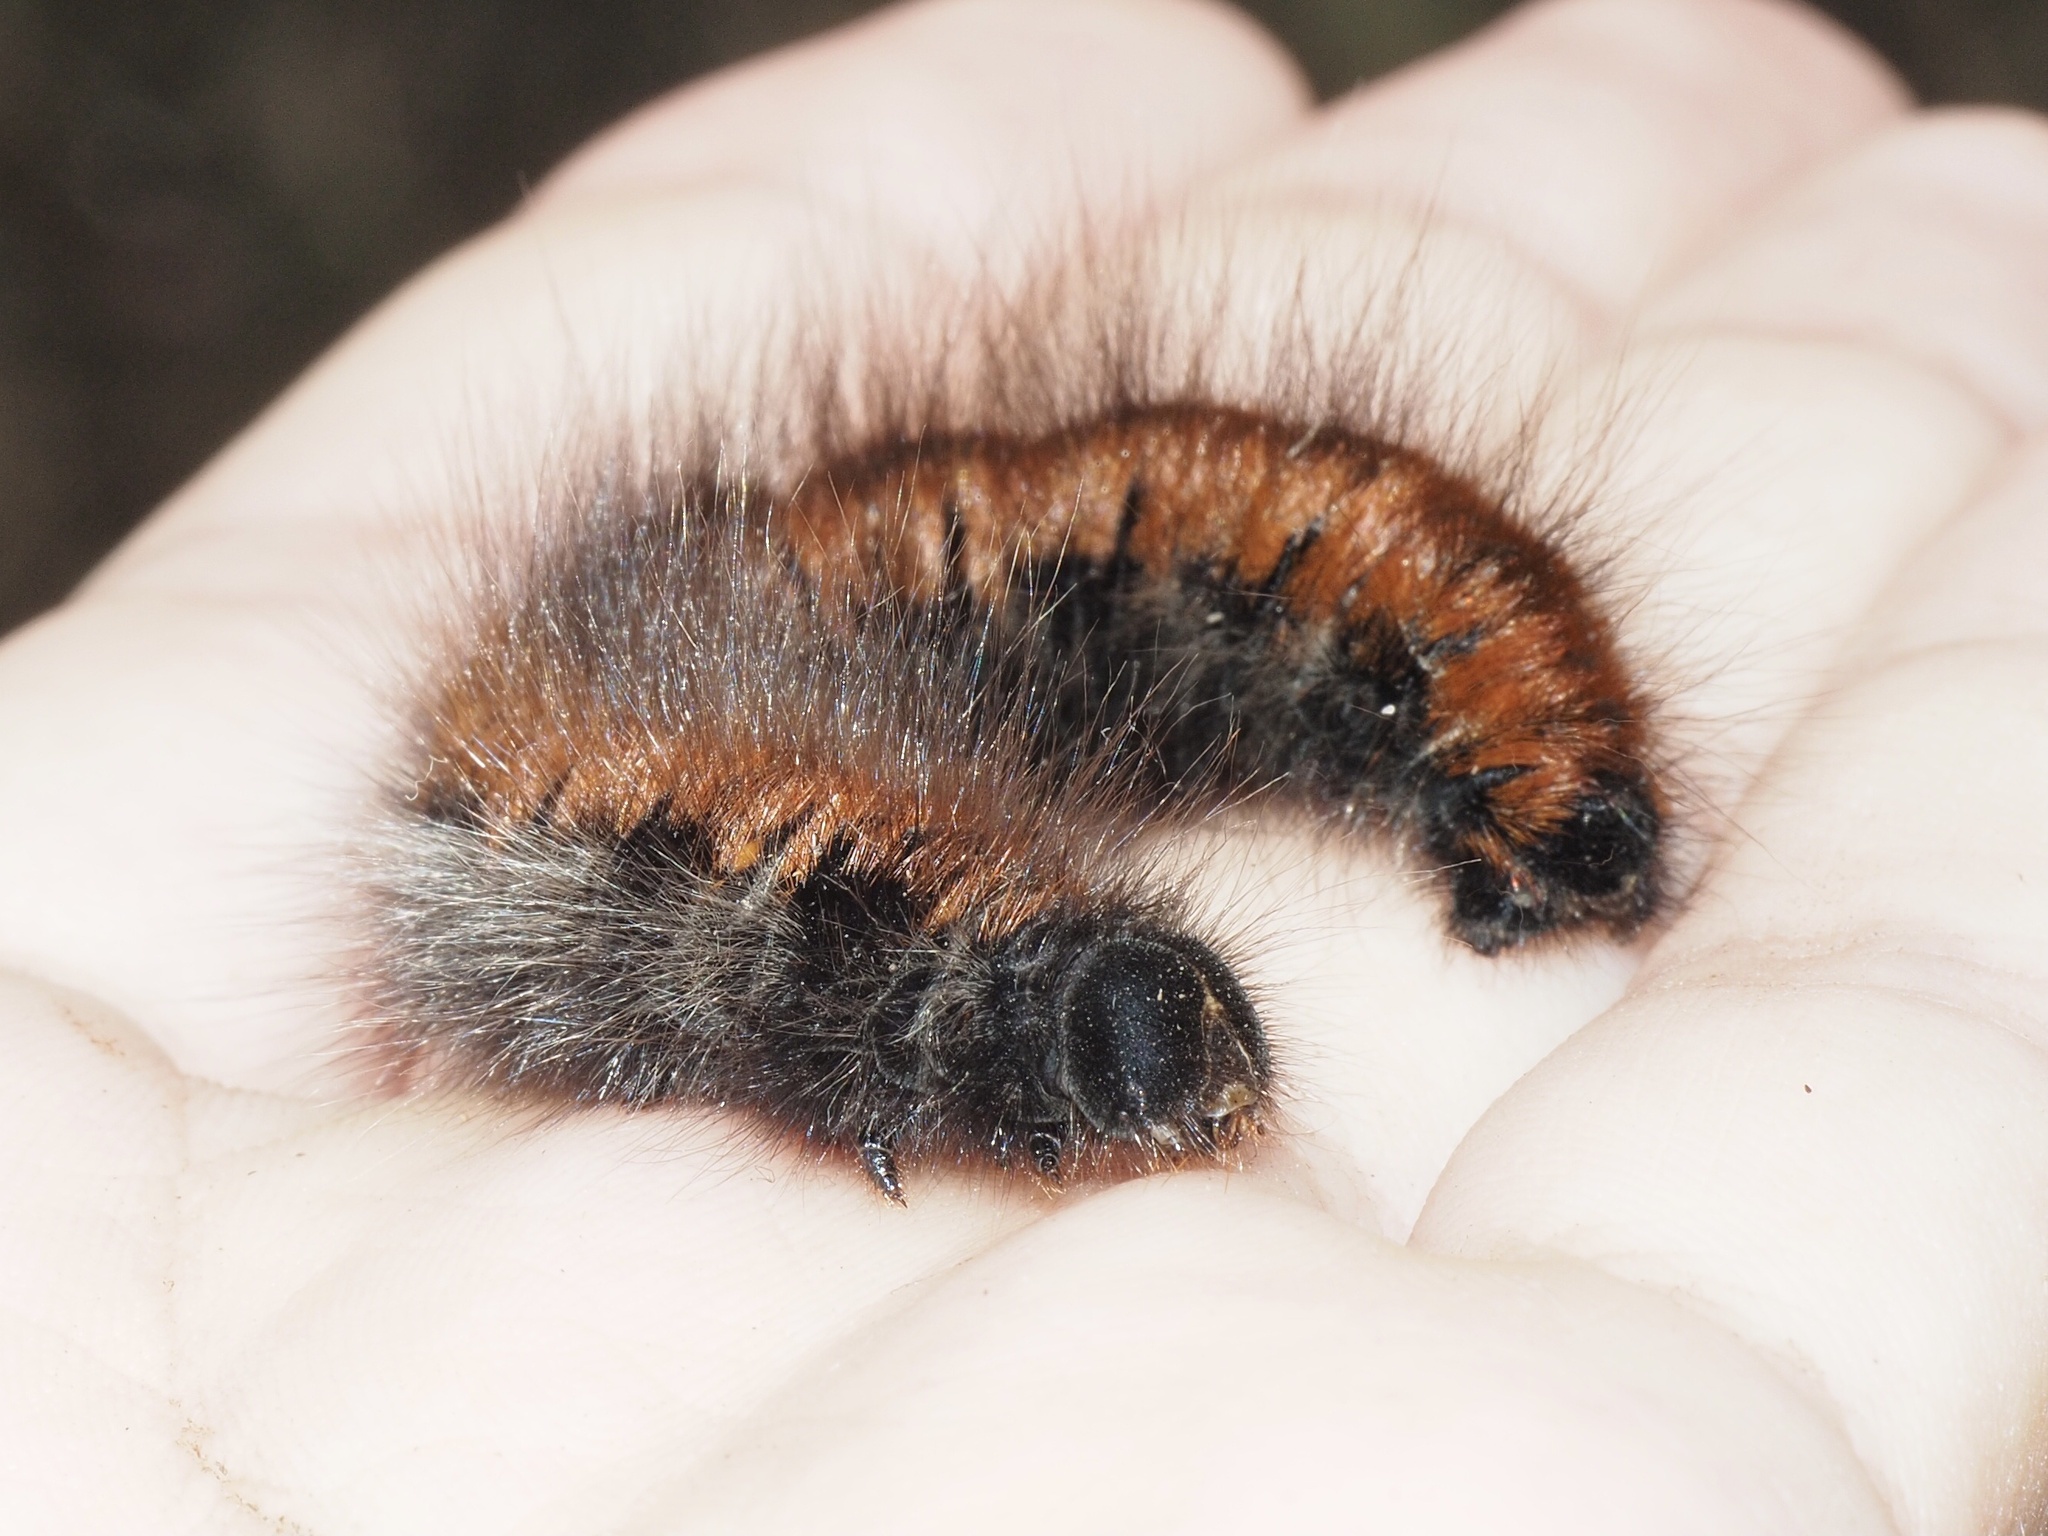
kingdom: Animalia
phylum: Arthropoda
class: Insecta
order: Lepidoptera
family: Lasiocampidae
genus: Macrothylacia
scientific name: Macrothylacia rubi
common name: Fox moth
